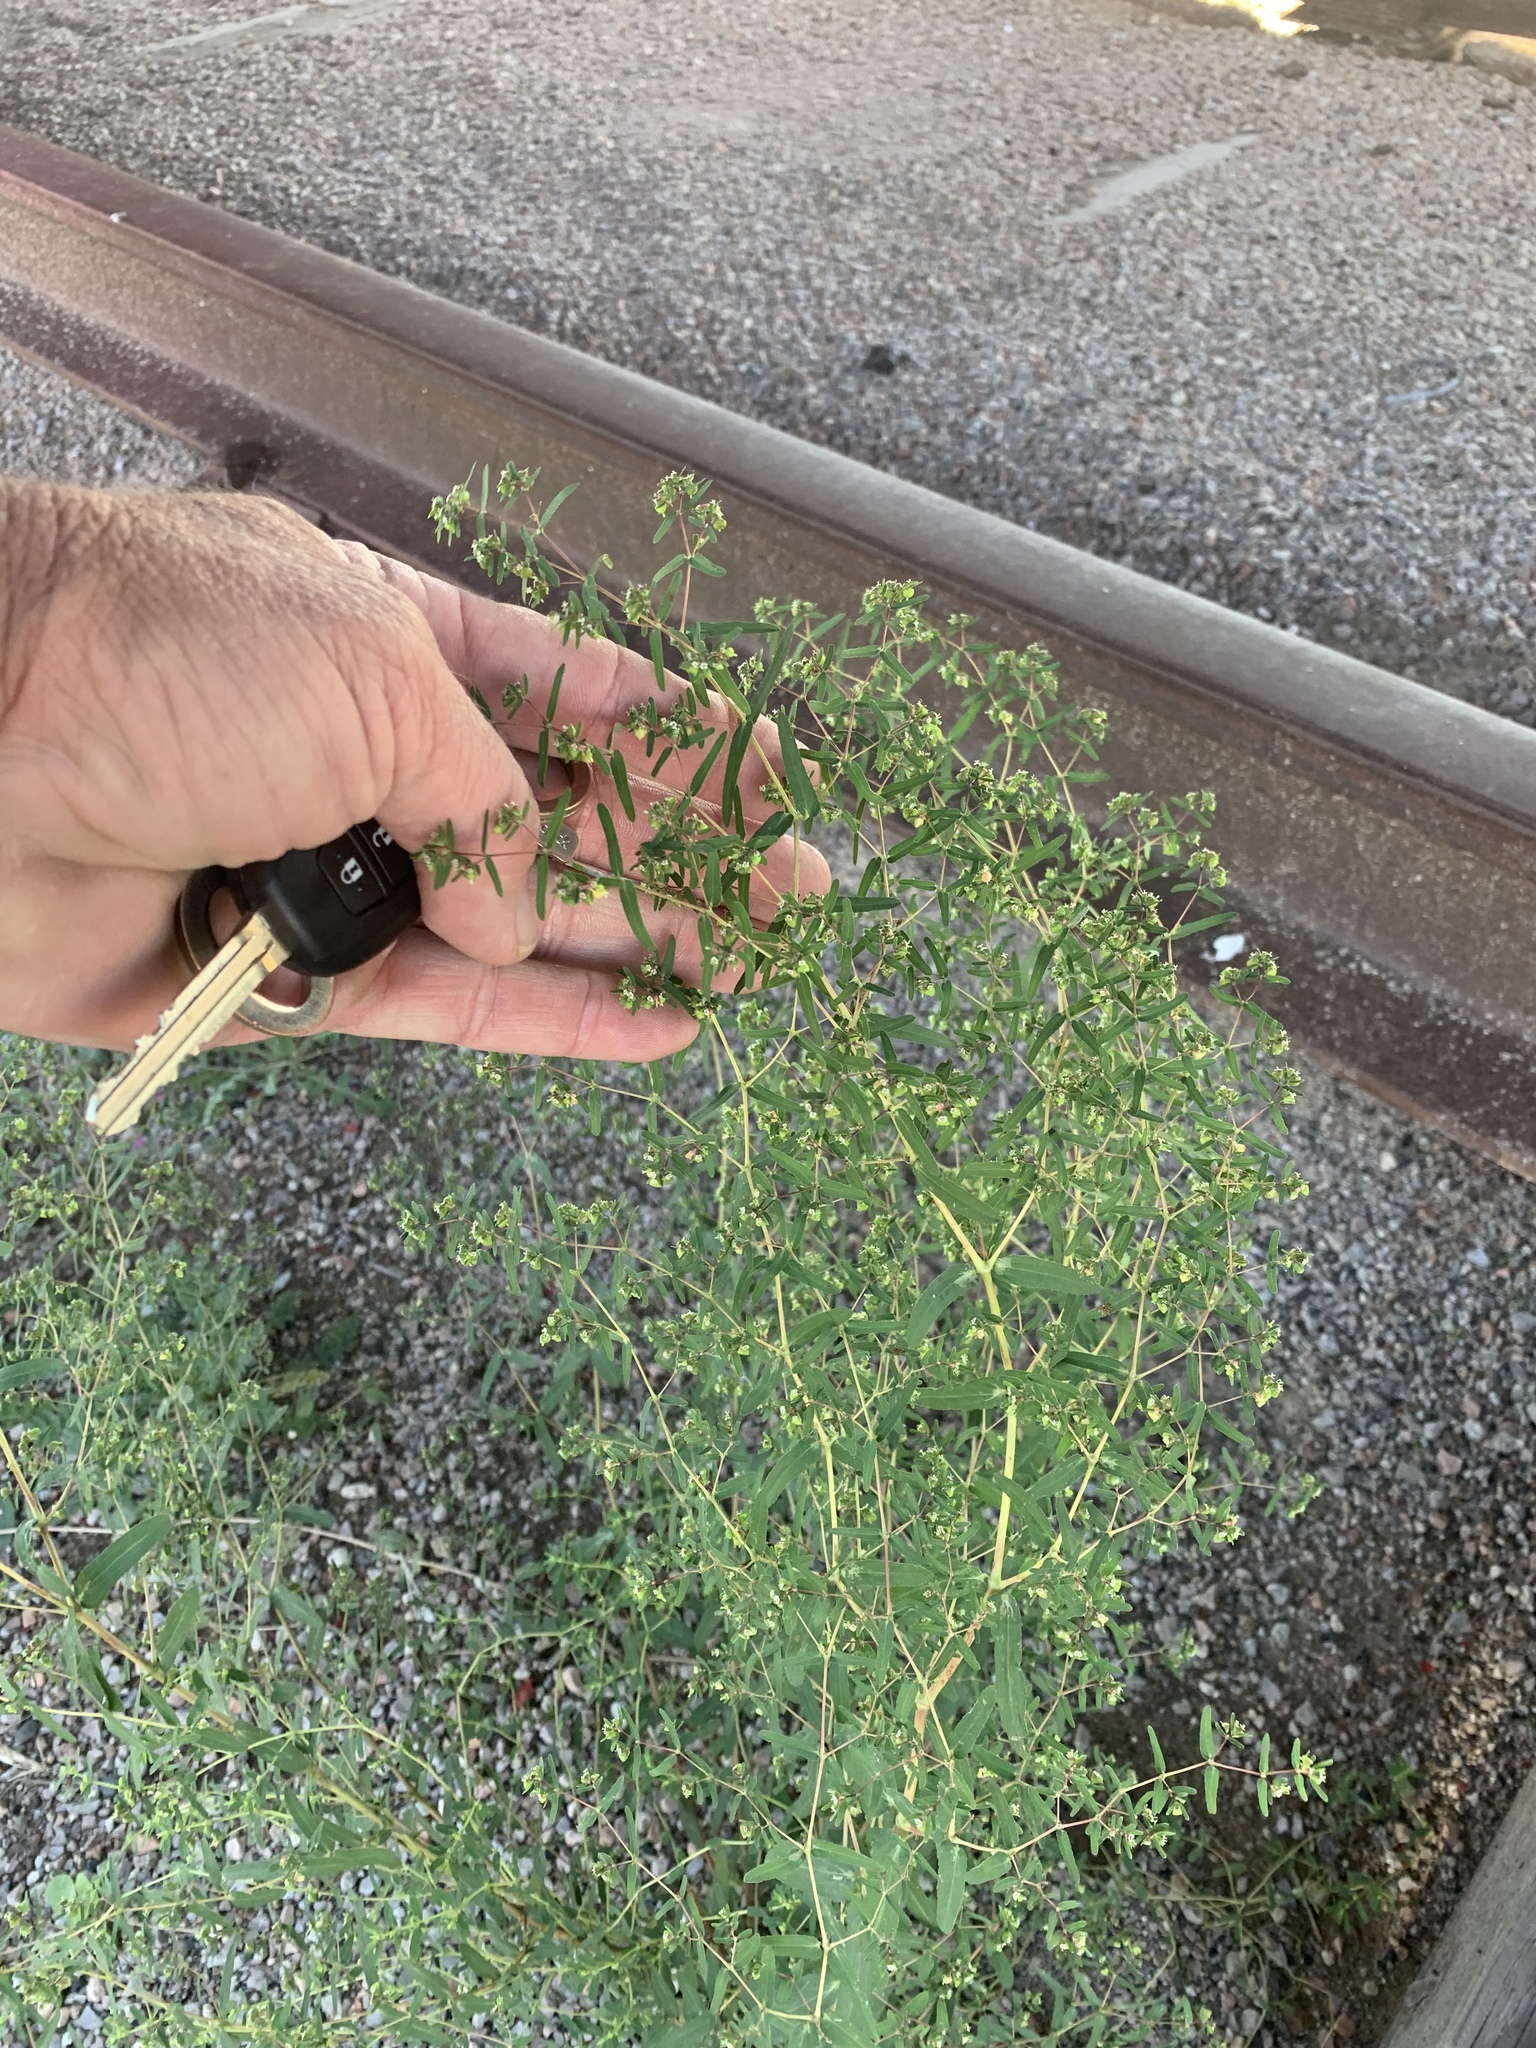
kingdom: Plantae
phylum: Tracheophyta
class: Magnoliopsida
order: Malpighiales
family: Euphorbiaceae
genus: Euphorbia
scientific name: Euphorbia hyssopifolia
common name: Hyssopleaf sandmat
